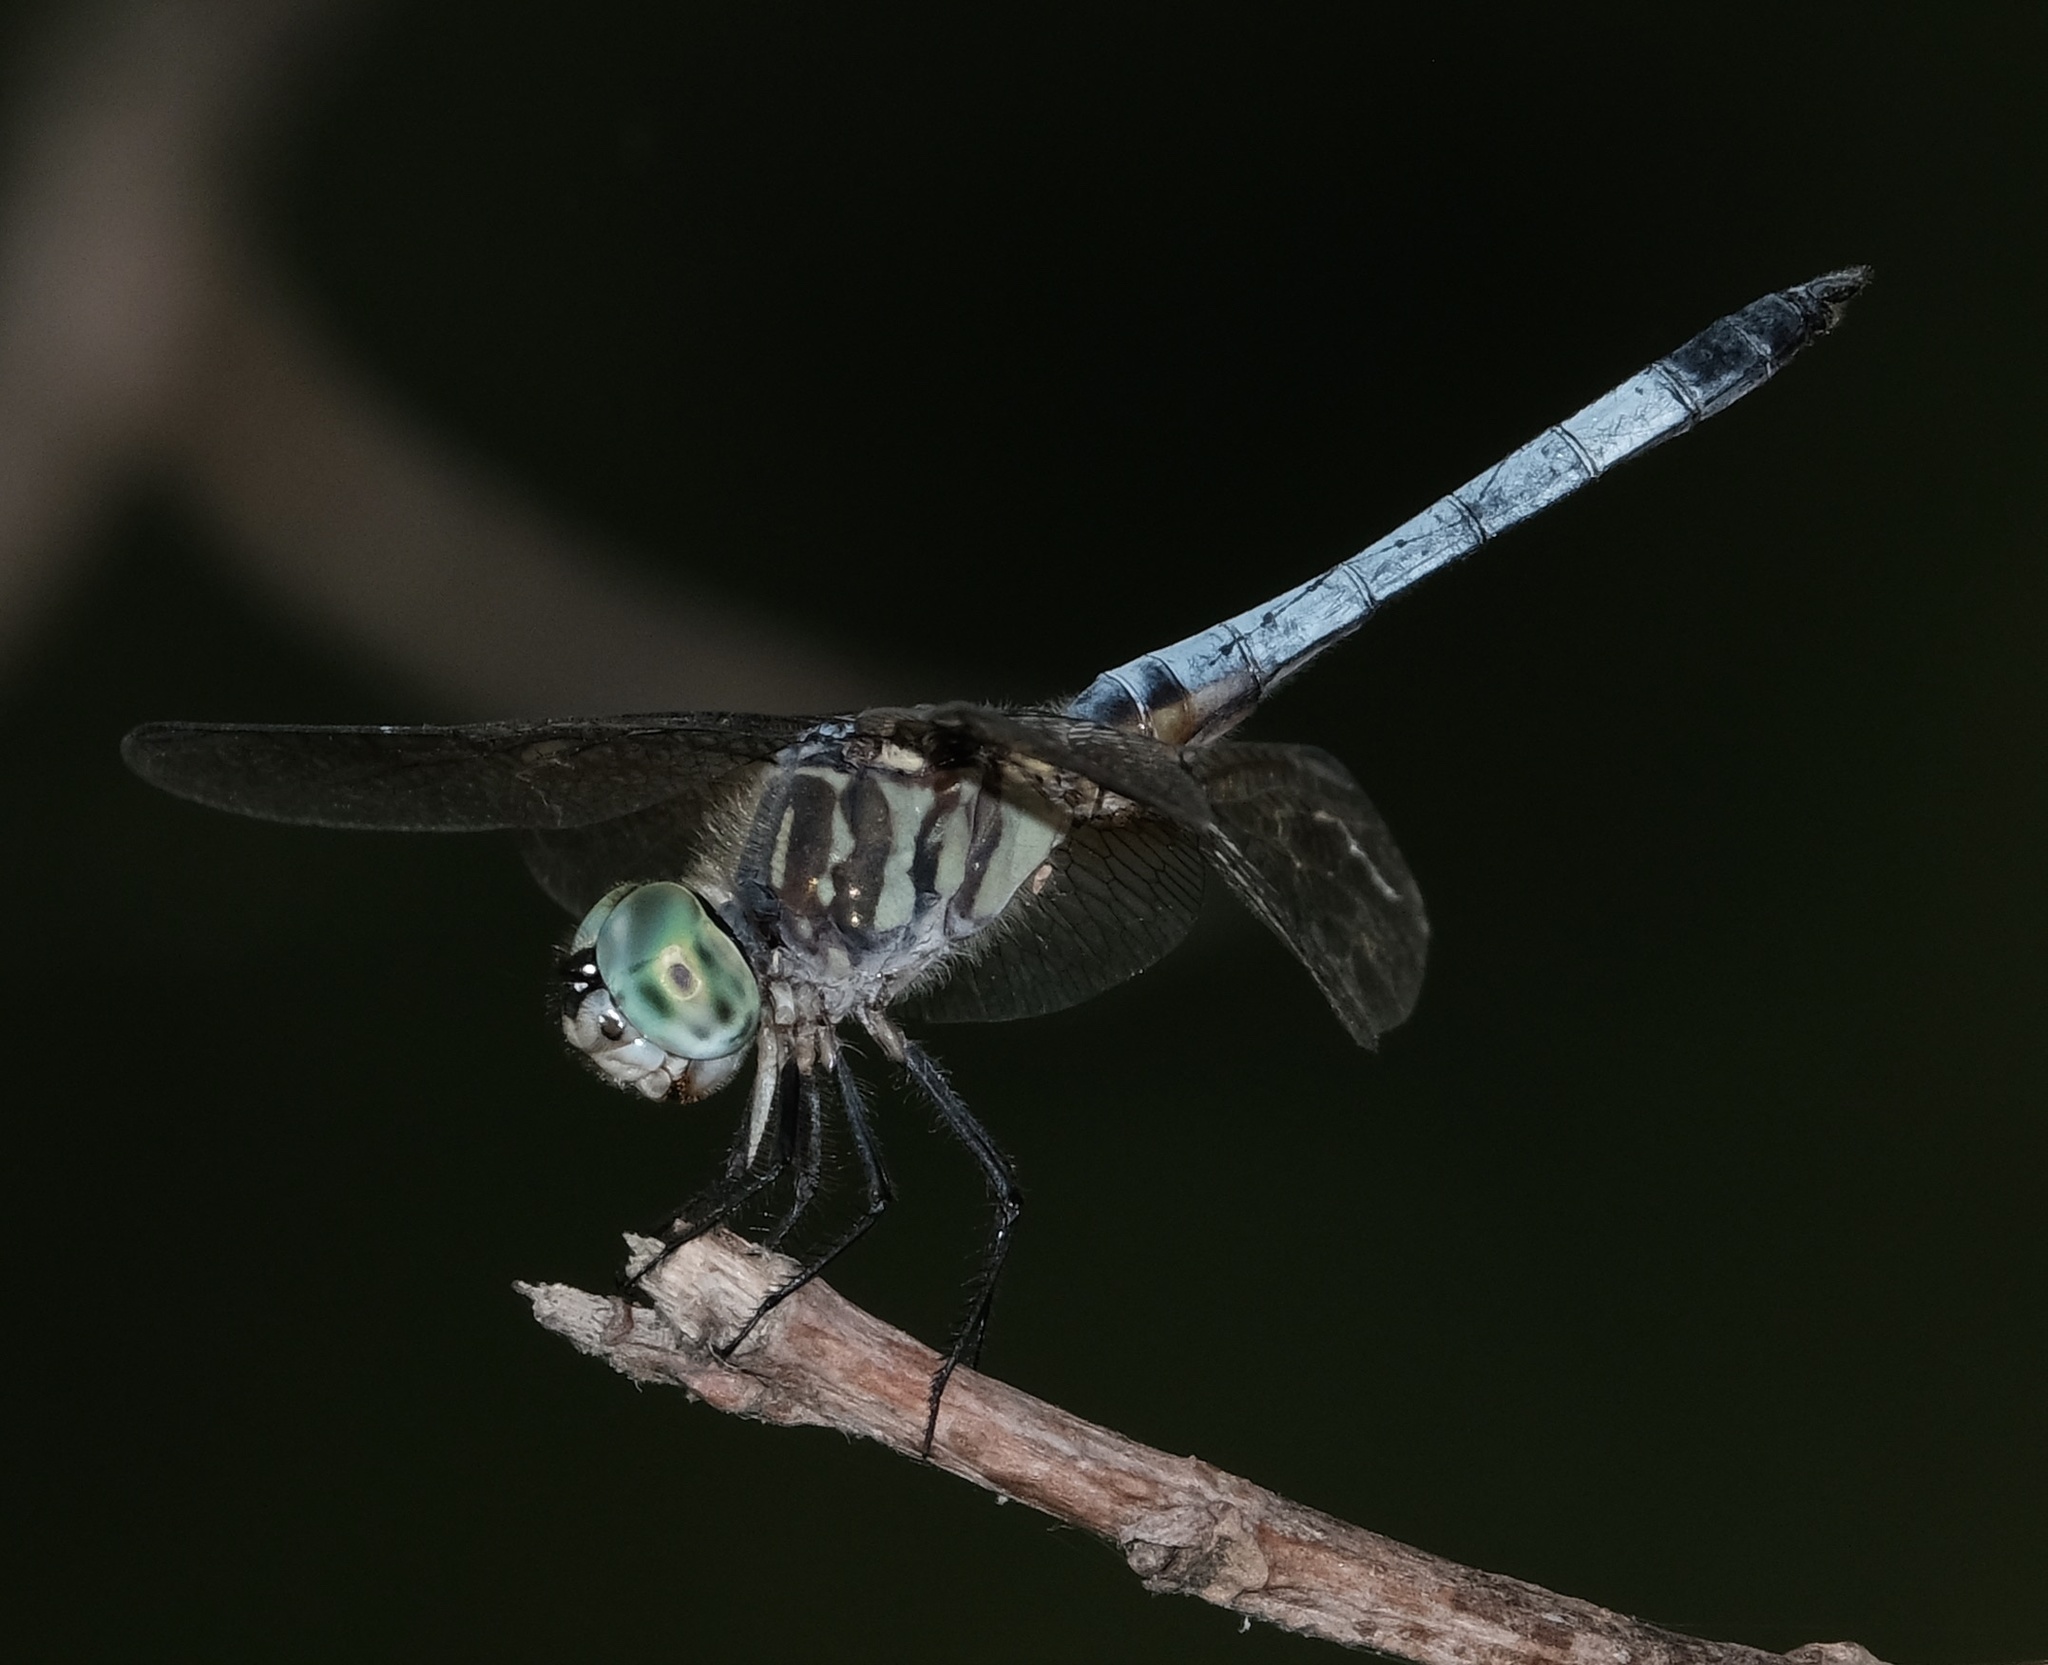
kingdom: Animalia
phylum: Arthropoda
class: Insecta
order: Odonata
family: Libellulidae
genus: Pachydiplax
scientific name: Pachydiplax longipennis
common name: Blue dasher
